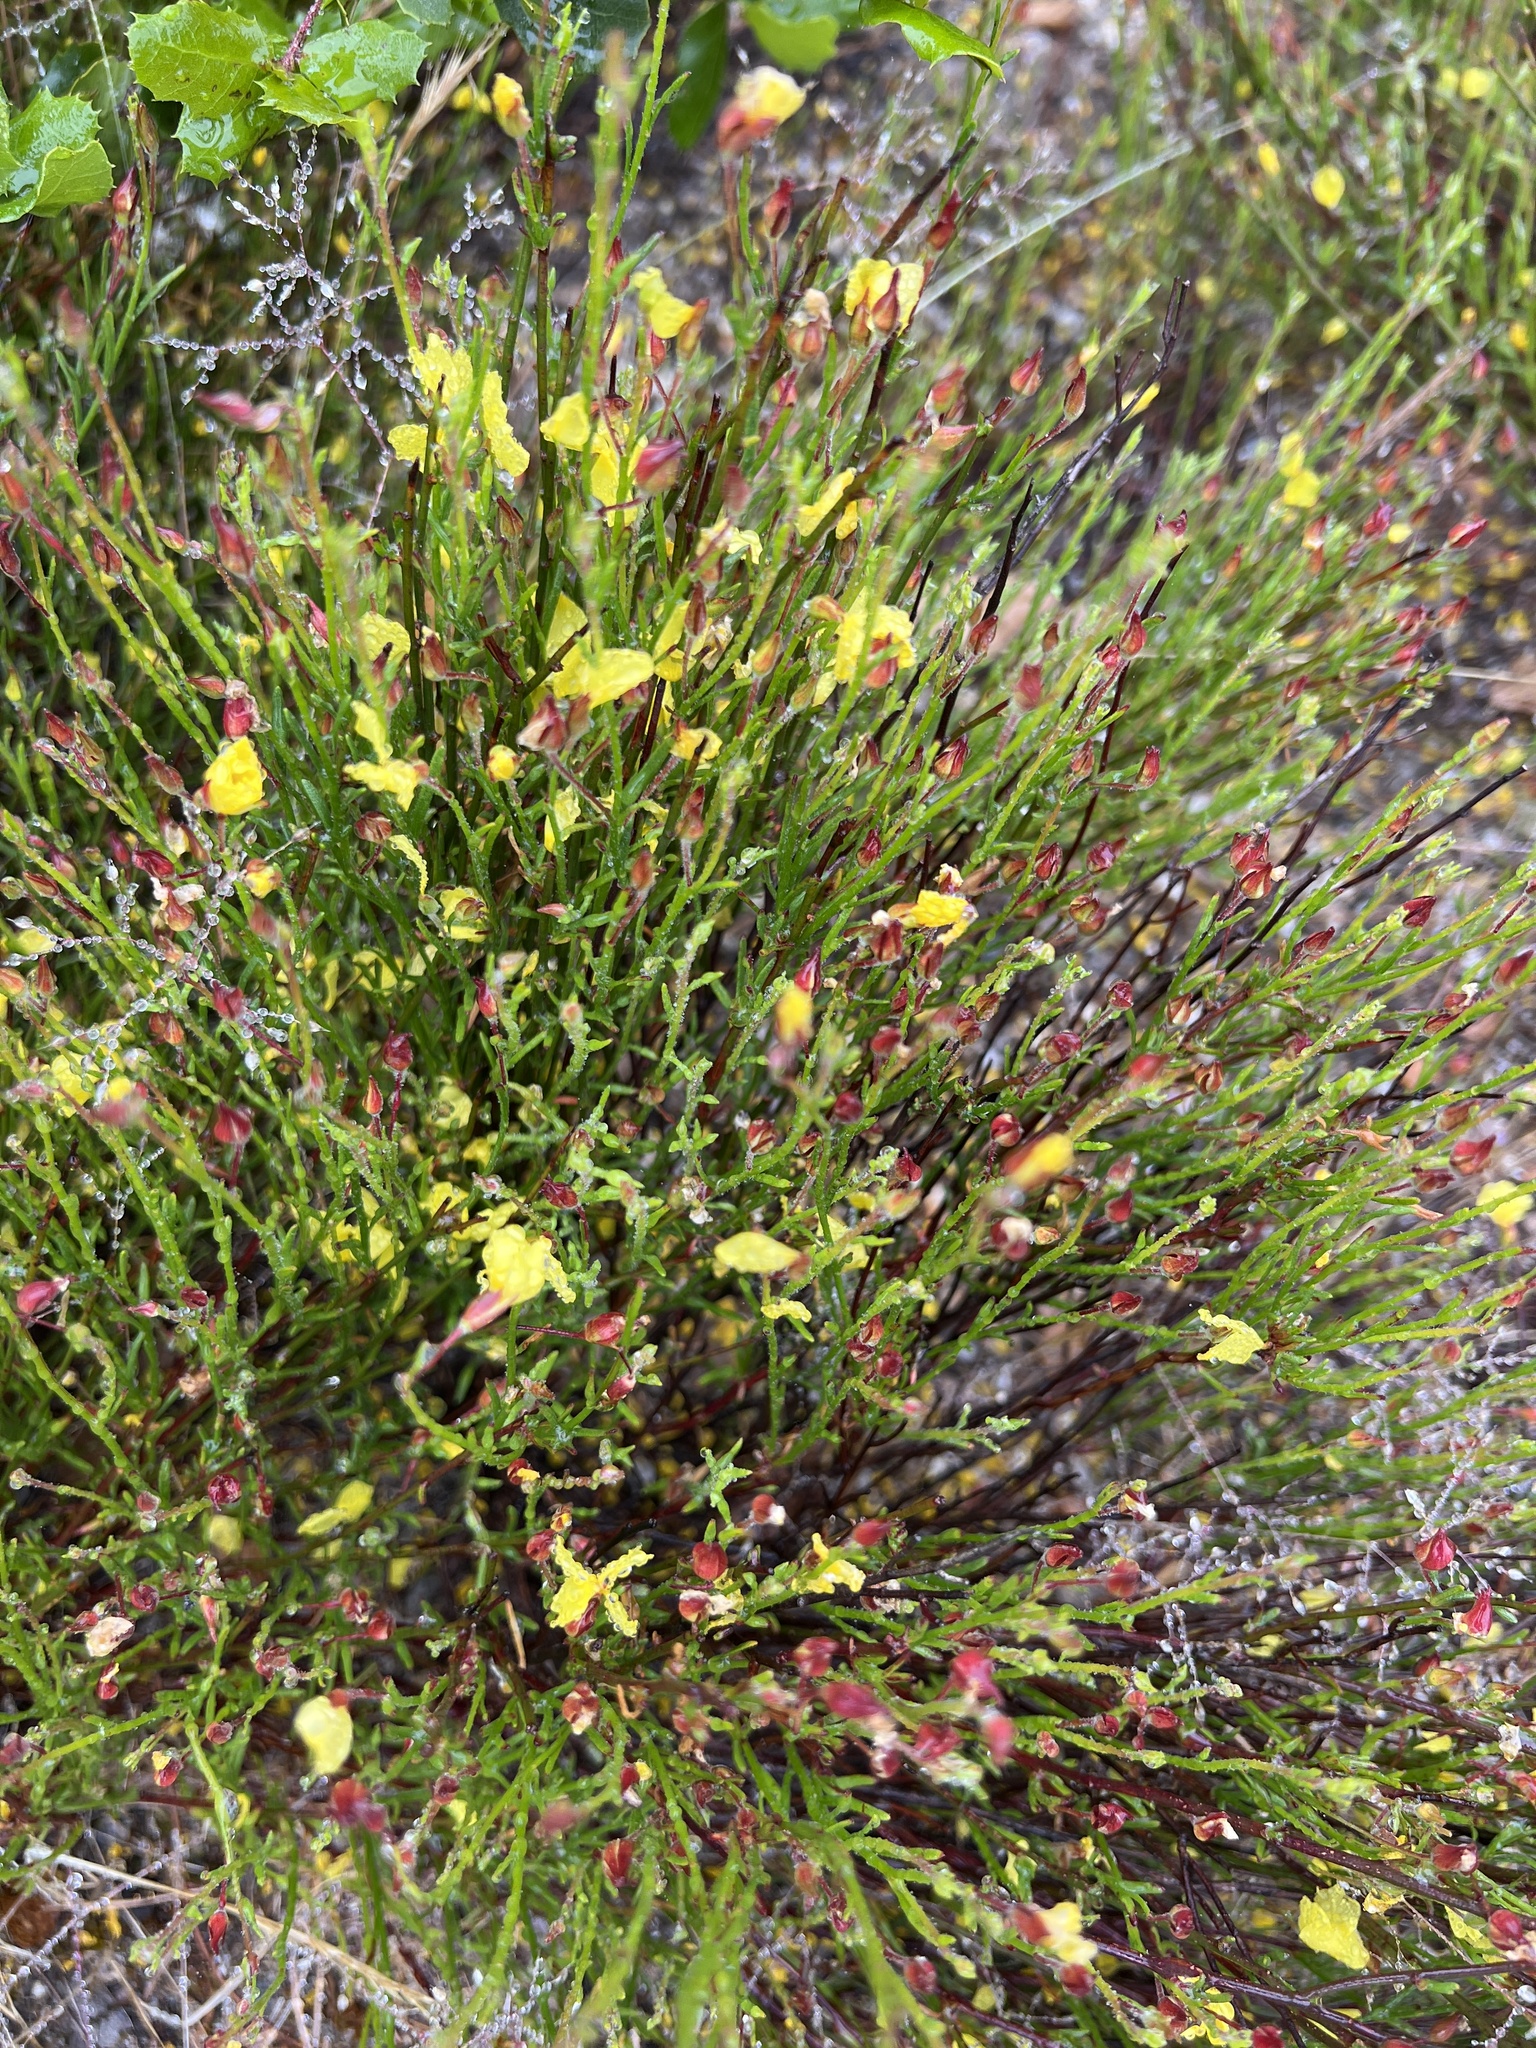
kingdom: Plantae
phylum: Tracheophyta
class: Magnoliopsida
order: Malvales
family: Cistaceae
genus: Crocanthemum
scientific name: Crocanthemum scoparium
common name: Broom-rose
